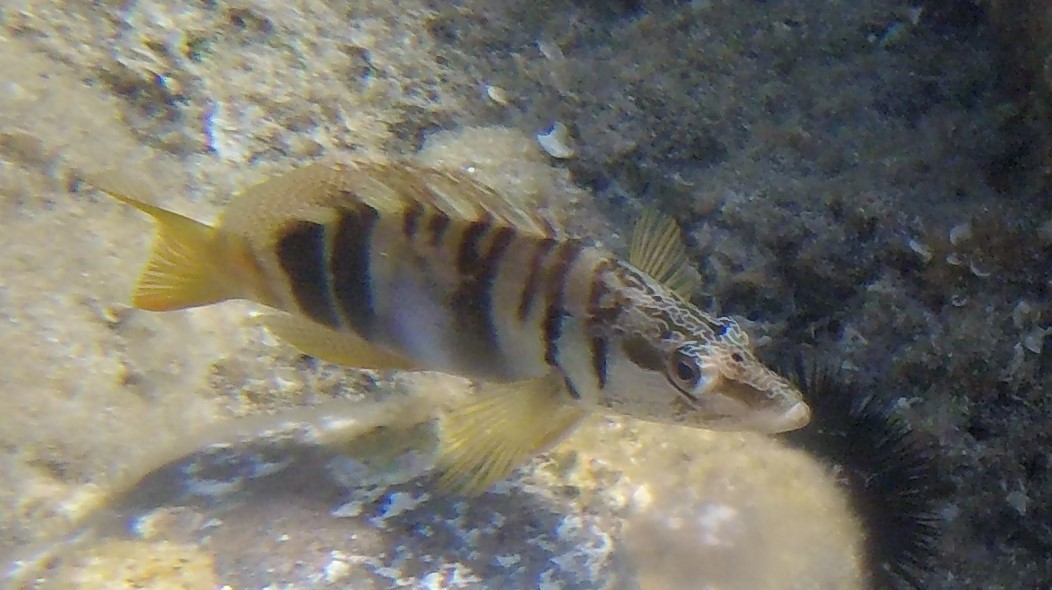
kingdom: Animalia
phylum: Chordata
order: Perciformes
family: Serranidae
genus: Serranus
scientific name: Serranus scriba
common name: Painted comber
